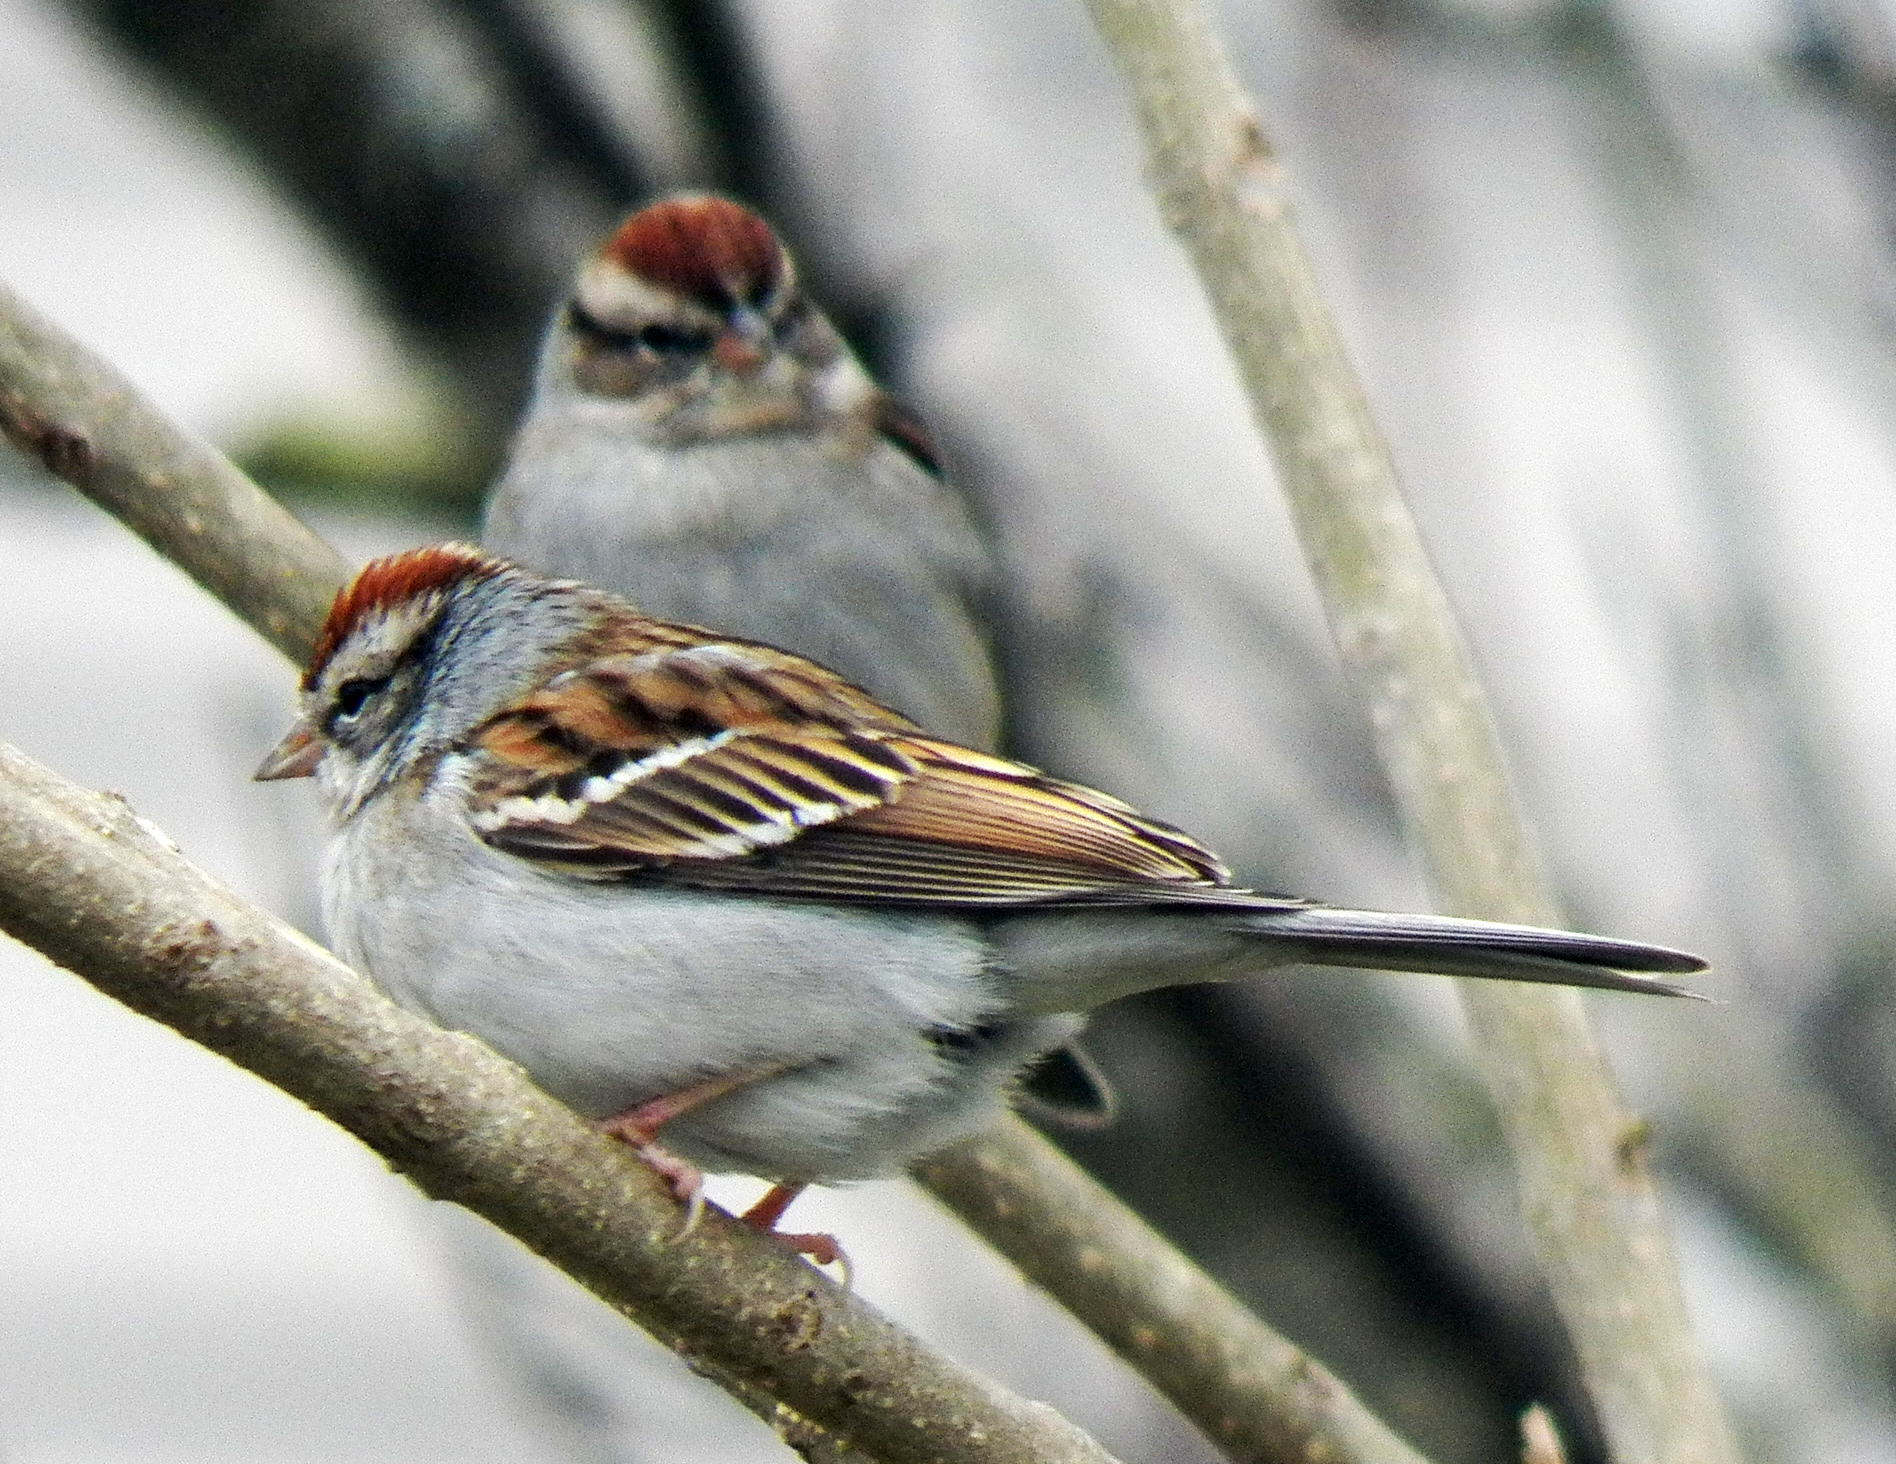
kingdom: Animalia
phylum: Chordata
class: Aves
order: Passeriformes
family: Passerellidae
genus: Spizella
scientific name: Spizella passerina
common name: Chipping sparrow
